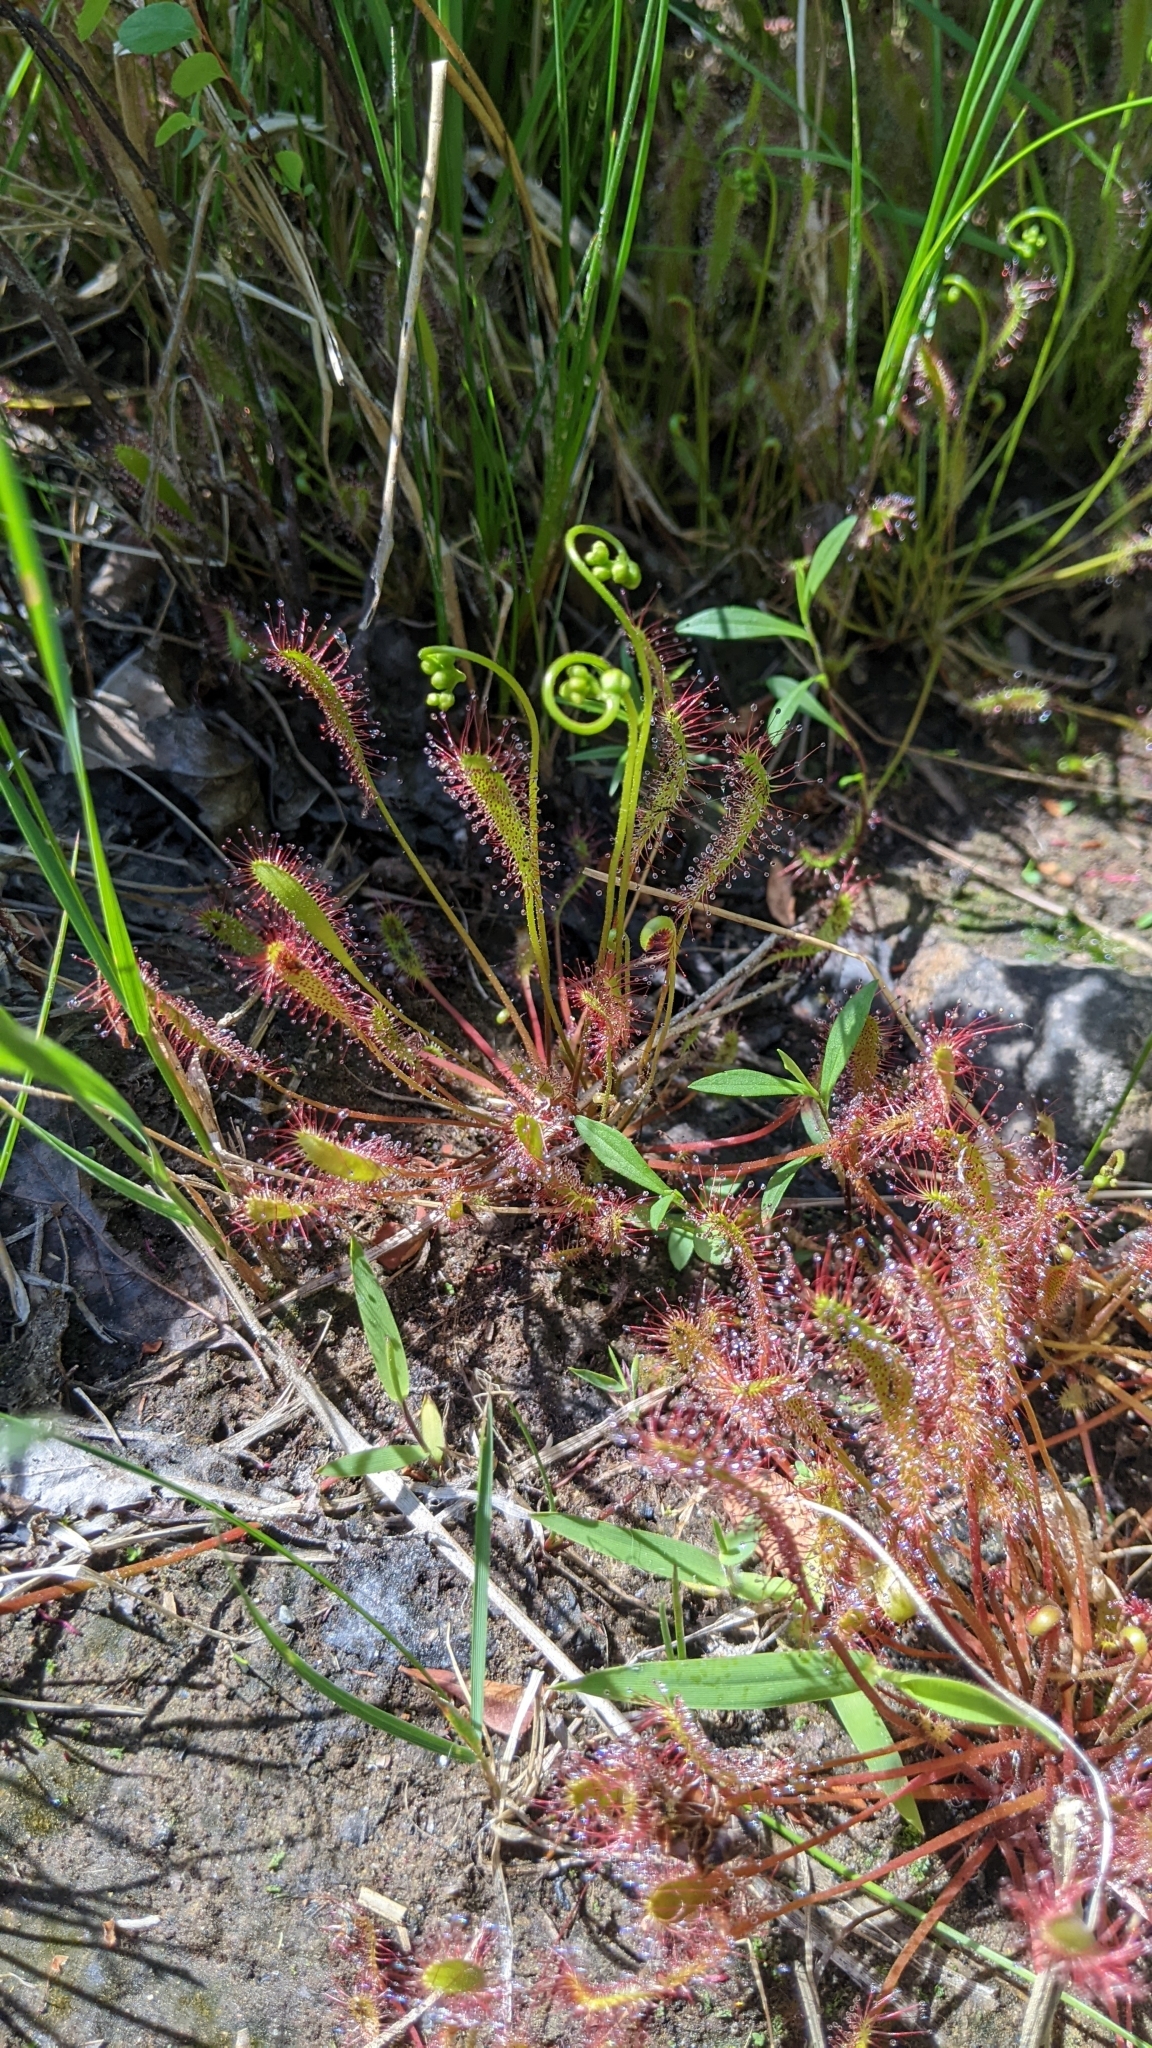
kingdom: Plantae
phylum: Tracheophyta
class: Magnoliopsida
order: Caryophyllales
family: Droseraceae
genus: Drosera
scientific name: Drosera anglica
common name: Great sundew
